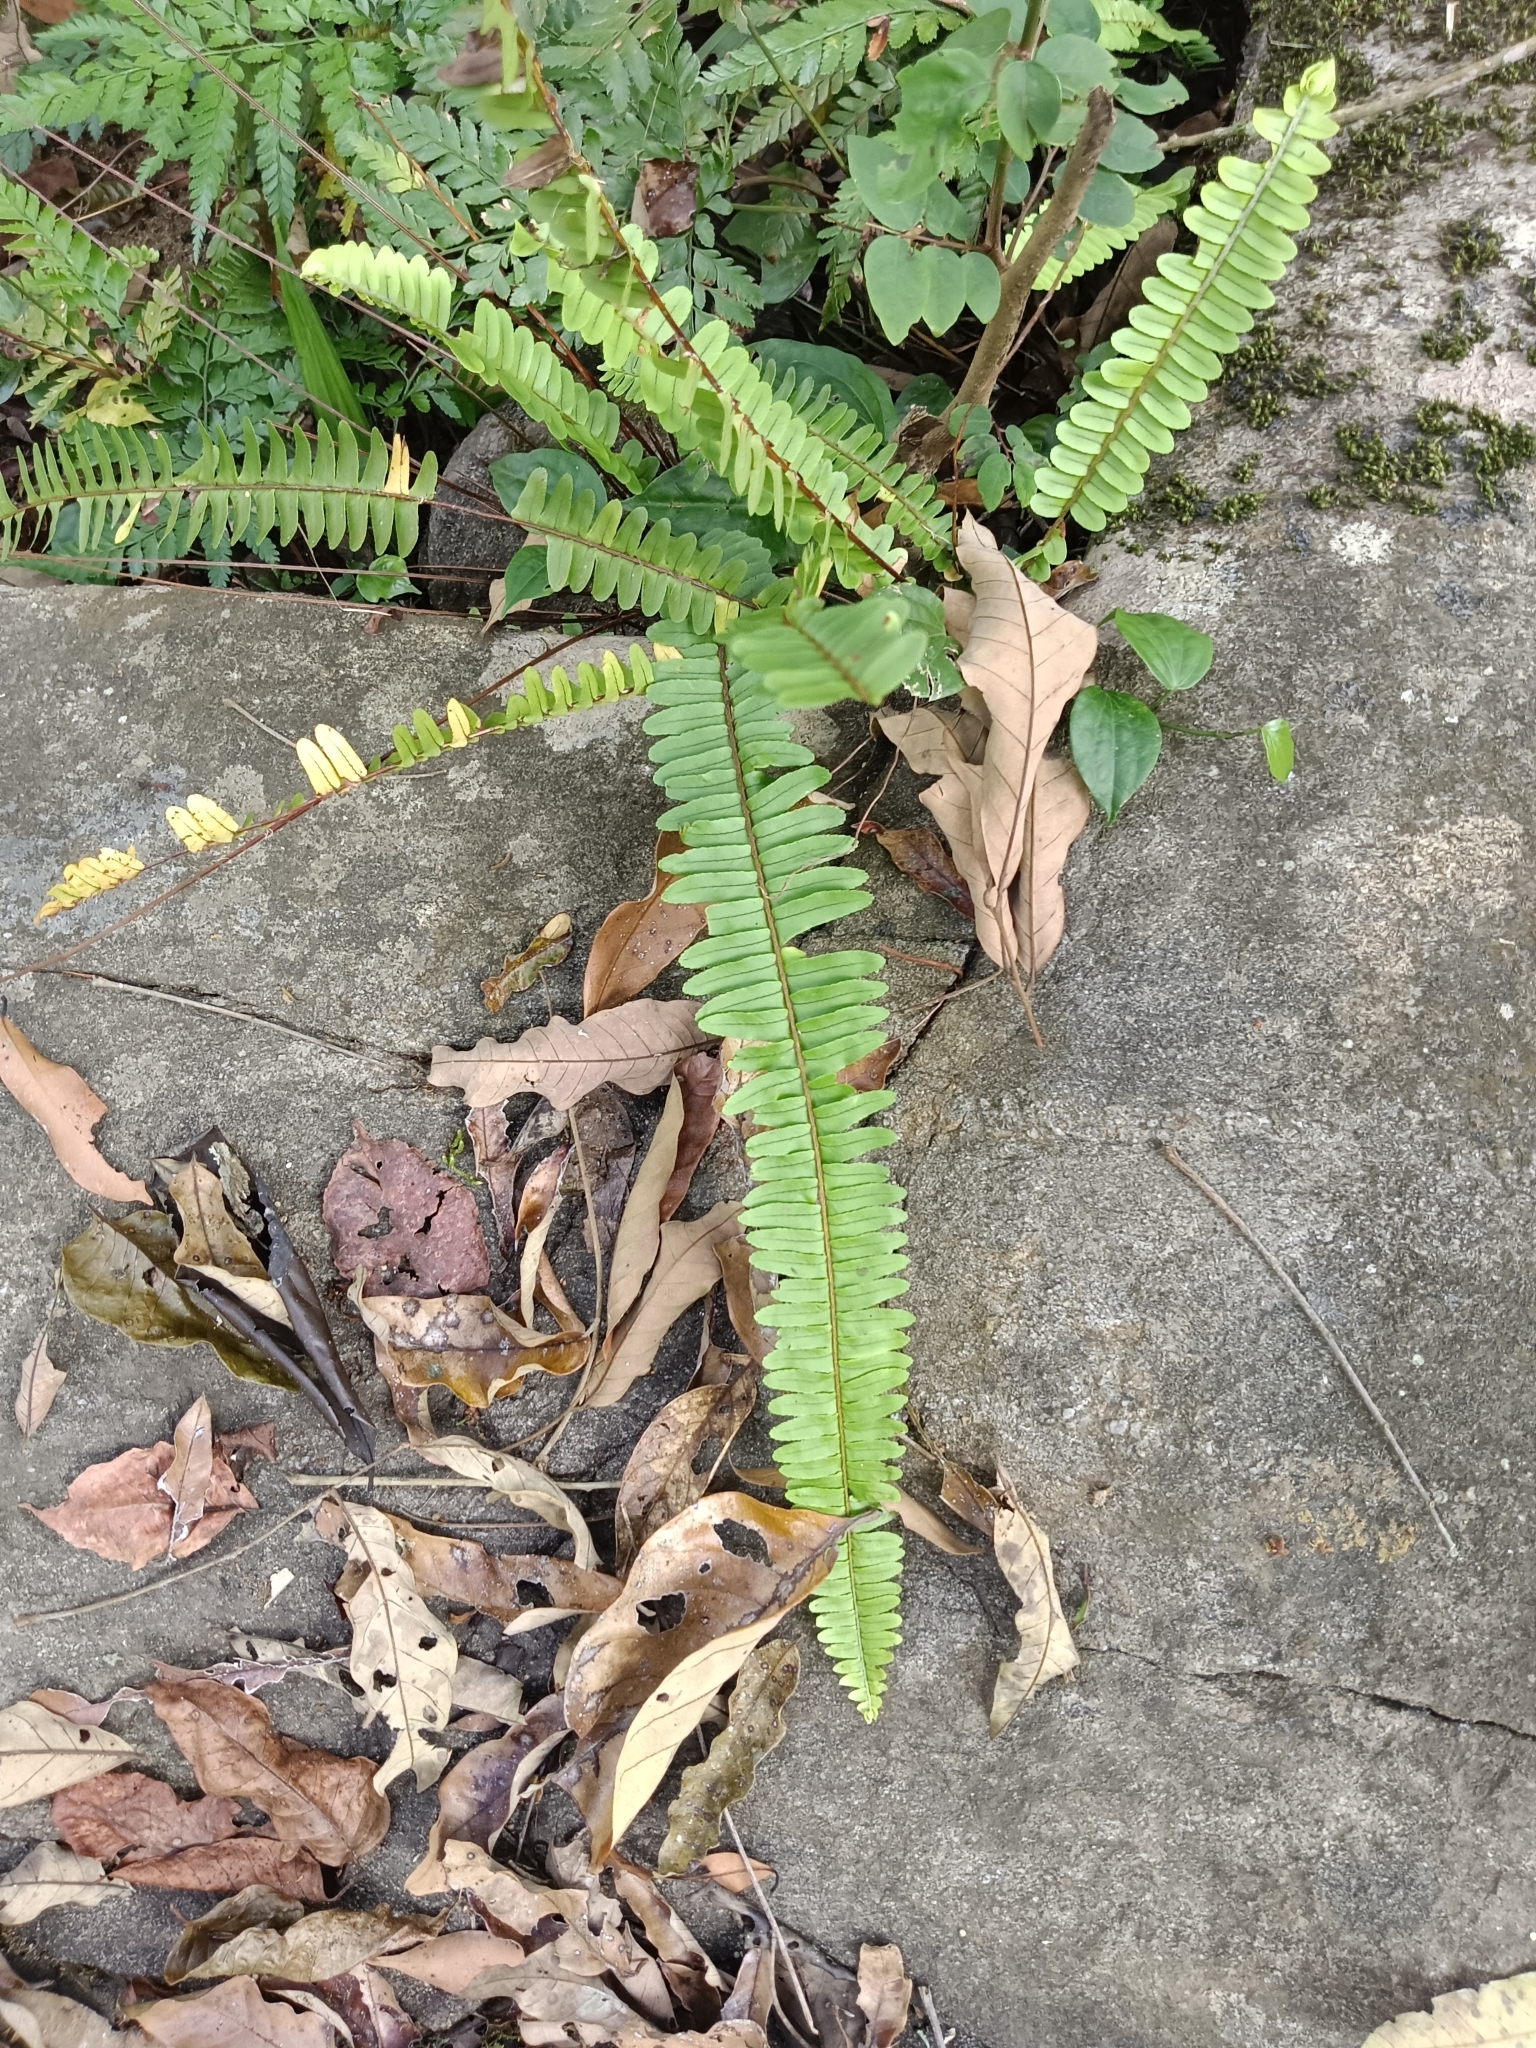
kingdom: Plantae
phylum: Tracheophyta
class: Polypodiopsida
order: Polypodiales
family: Nephrolepidaceae
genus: Nephrolepis
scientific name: Nephrolepis cordifolia
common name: Narrow swordfern
